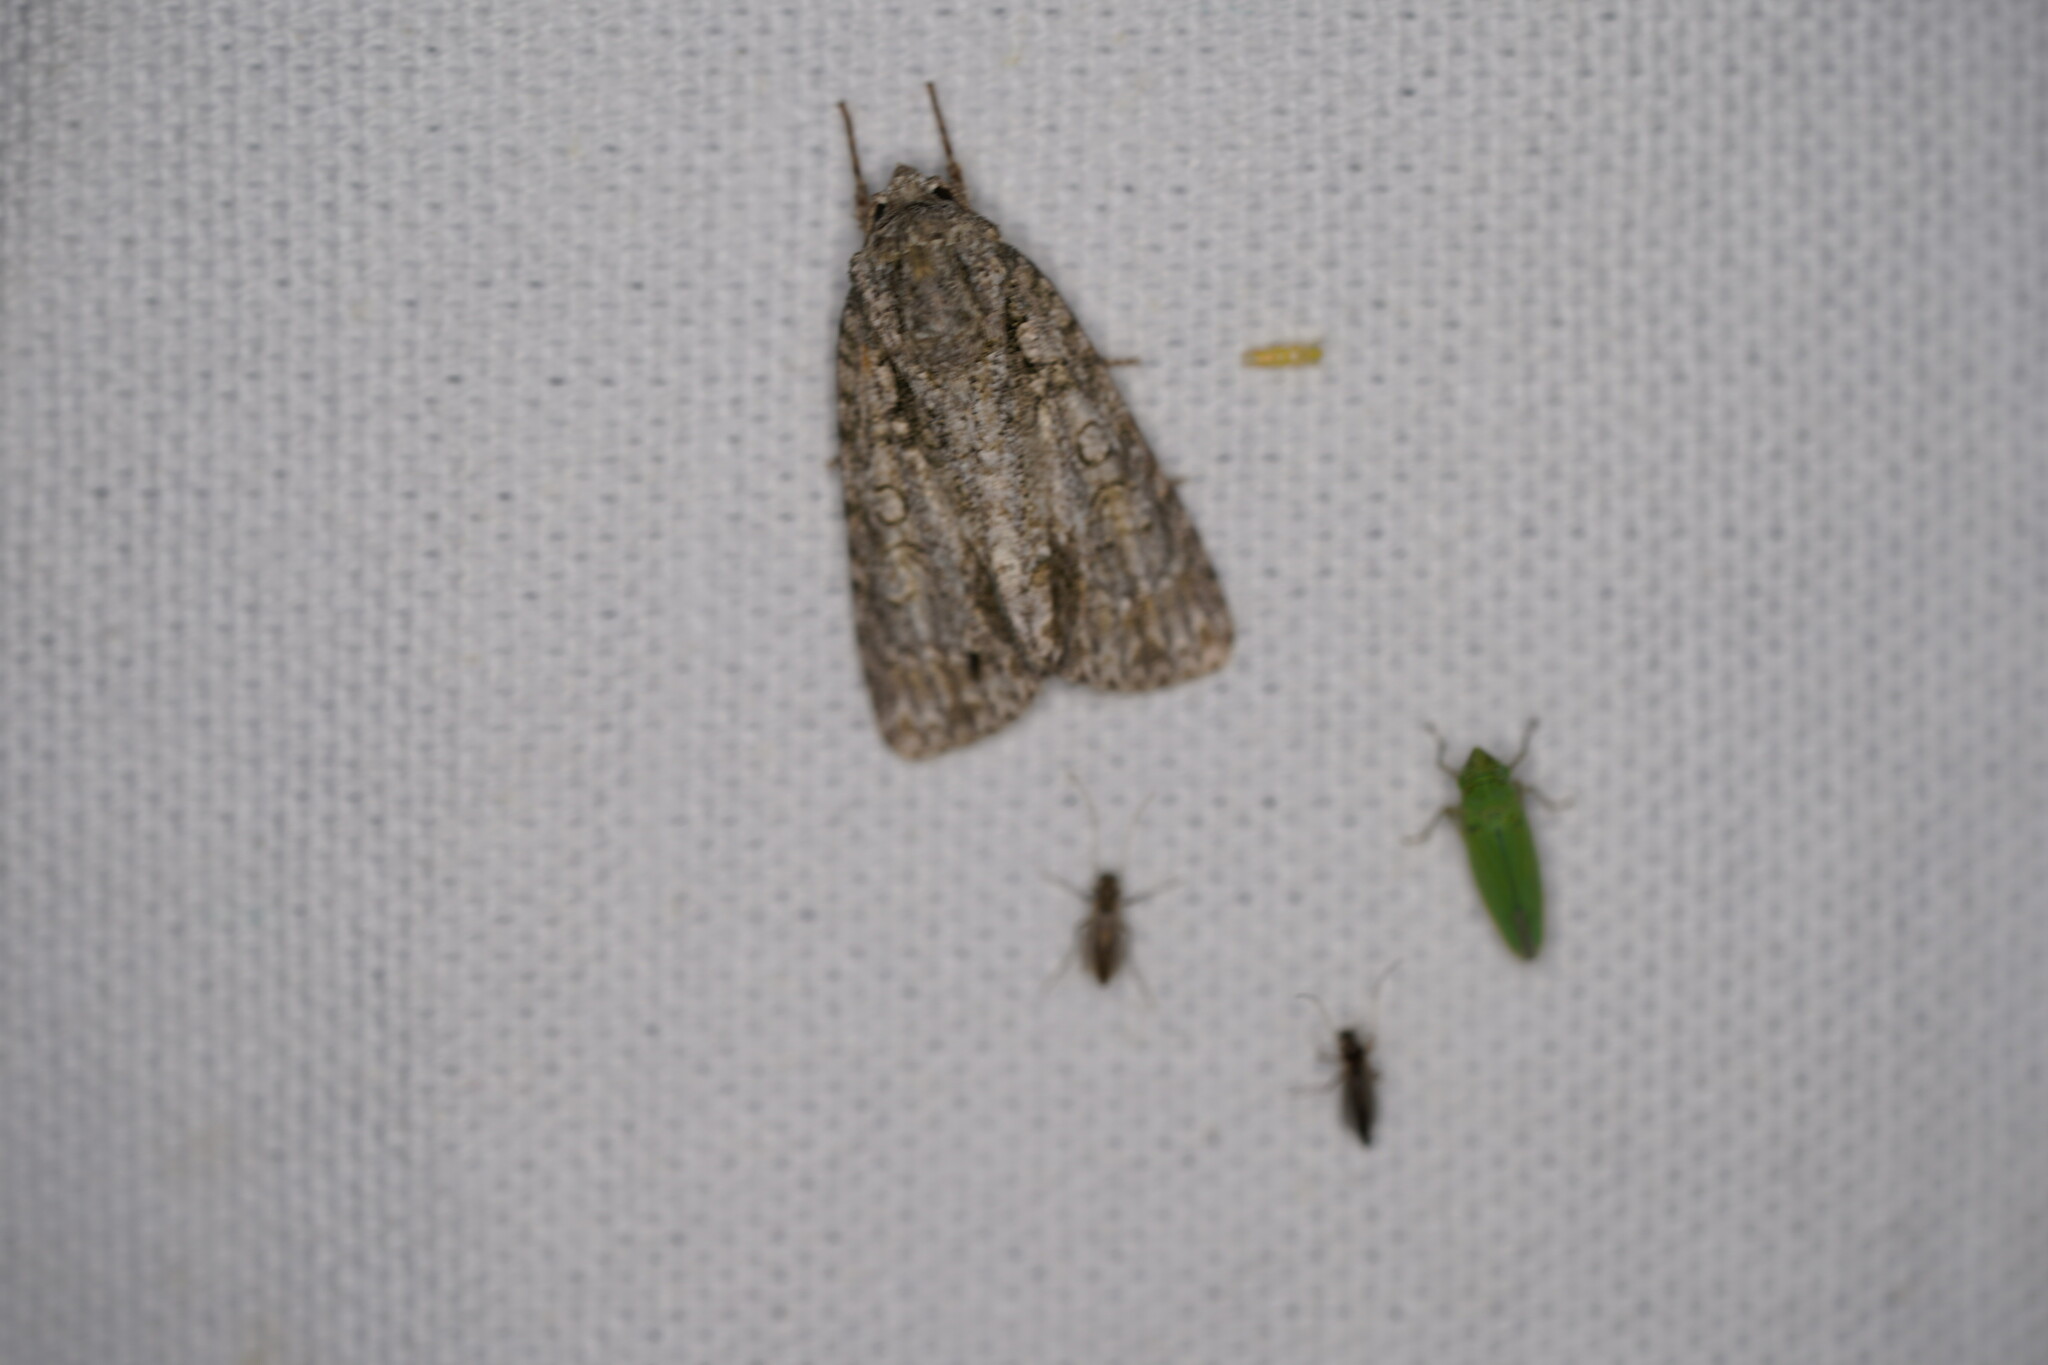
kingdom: Animalia
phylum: Arthropoda
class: Insecta
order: Lepidoptera
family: Noctuidae
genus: Acronicta
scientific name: Acronicta clarescens
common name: Clear dagger
